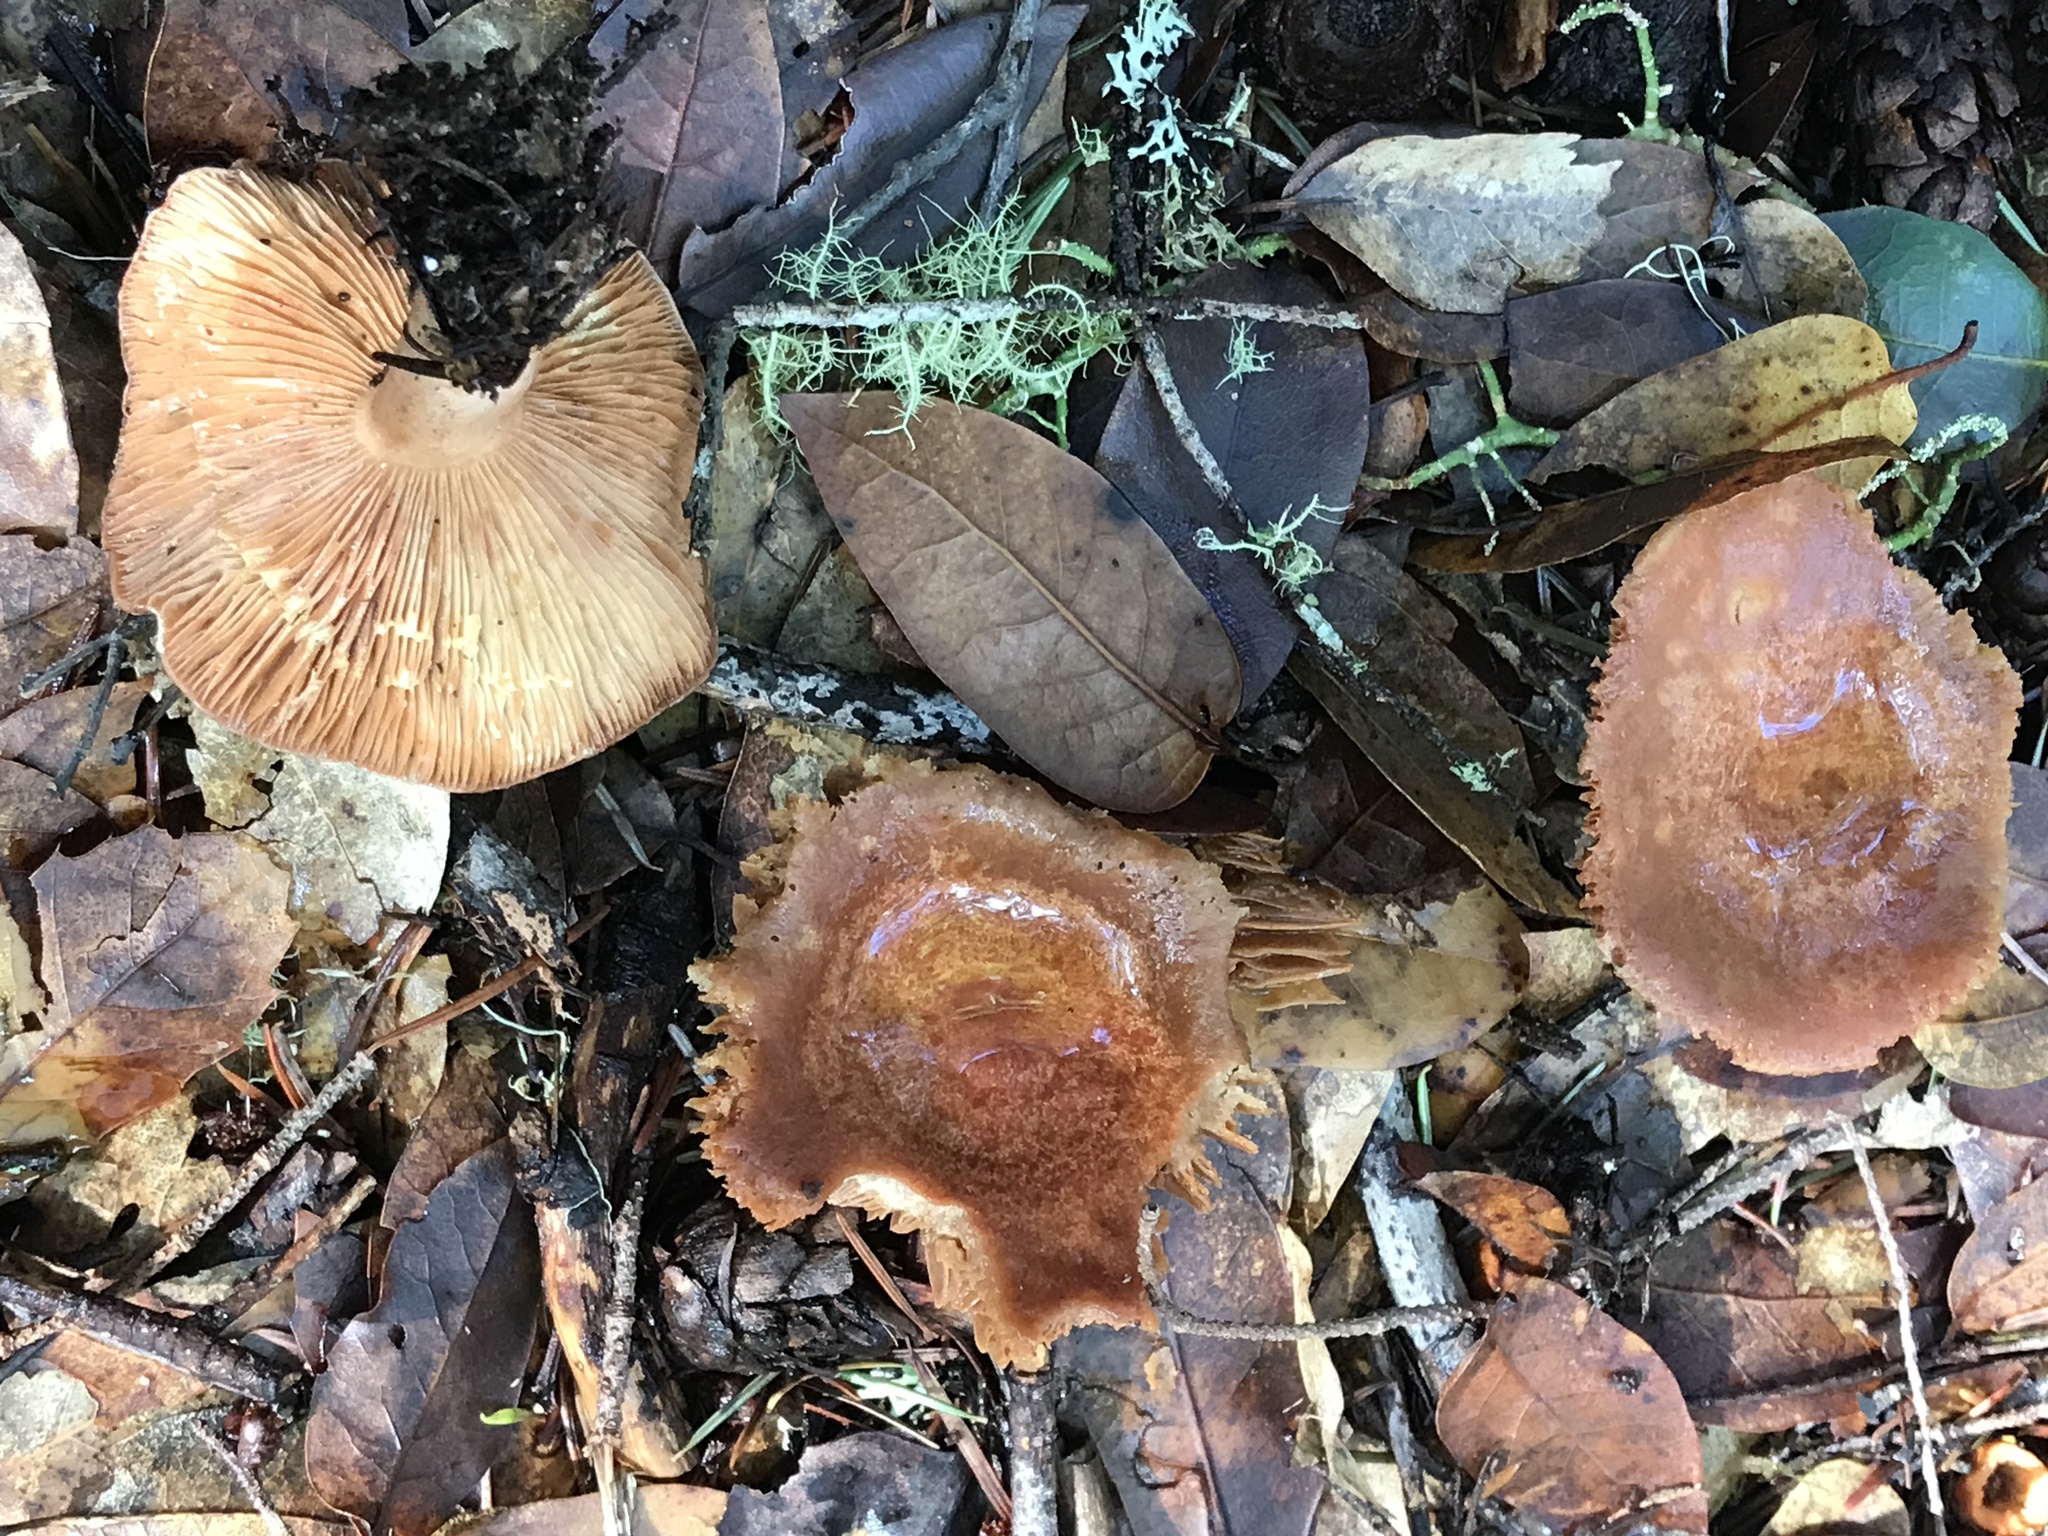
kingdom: Fungi
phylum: Basidiomycota
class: Agaricomycetes
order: Russulales
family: Russulaceae
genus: Lactarius
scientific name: Lactarius xanthogalactus
